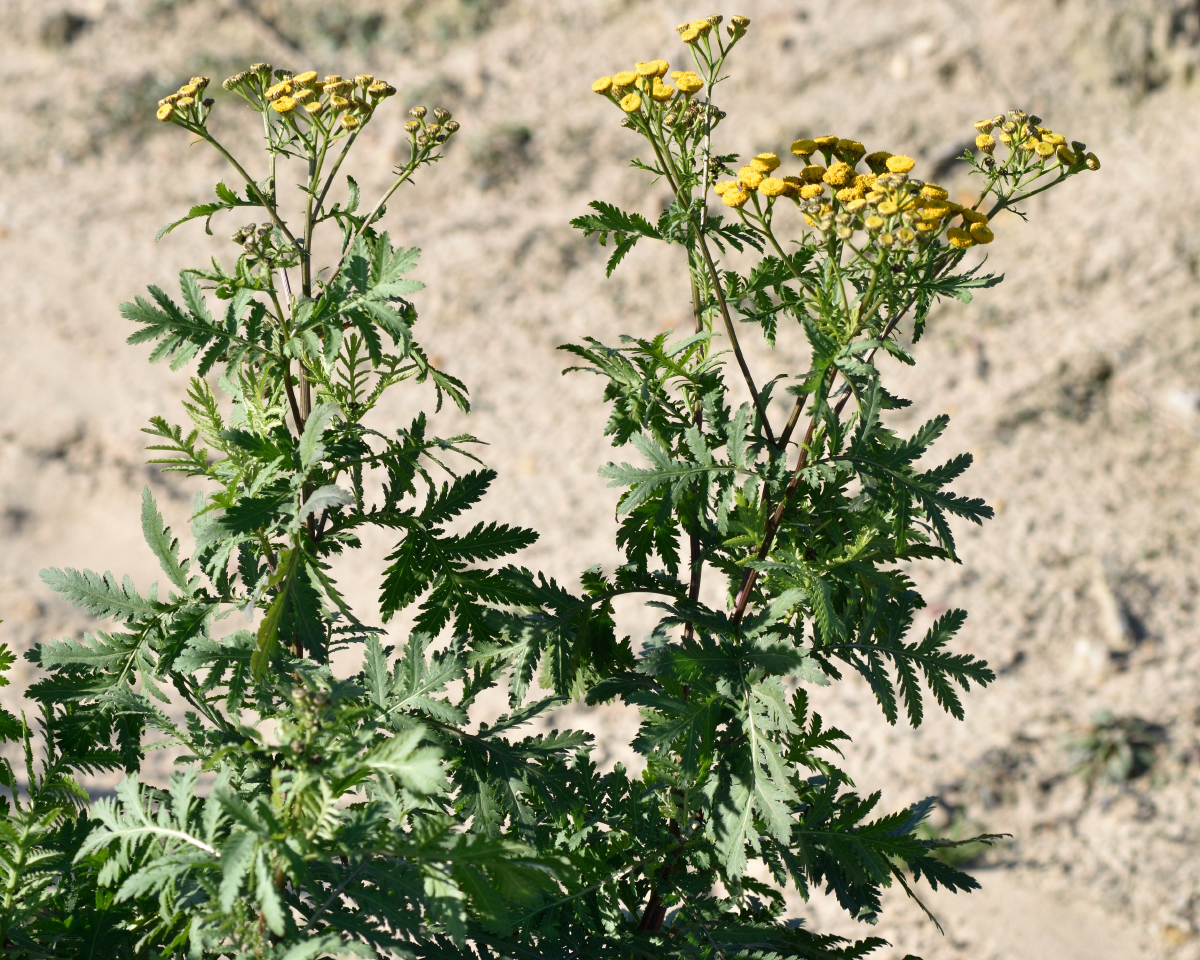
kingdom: Plantae
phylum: Tracheophyta
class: Magnoliopsida
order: Asterales
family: Asteraceae
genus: Tanacetum
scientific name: Tanacetum vulgare
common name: Common tansy
